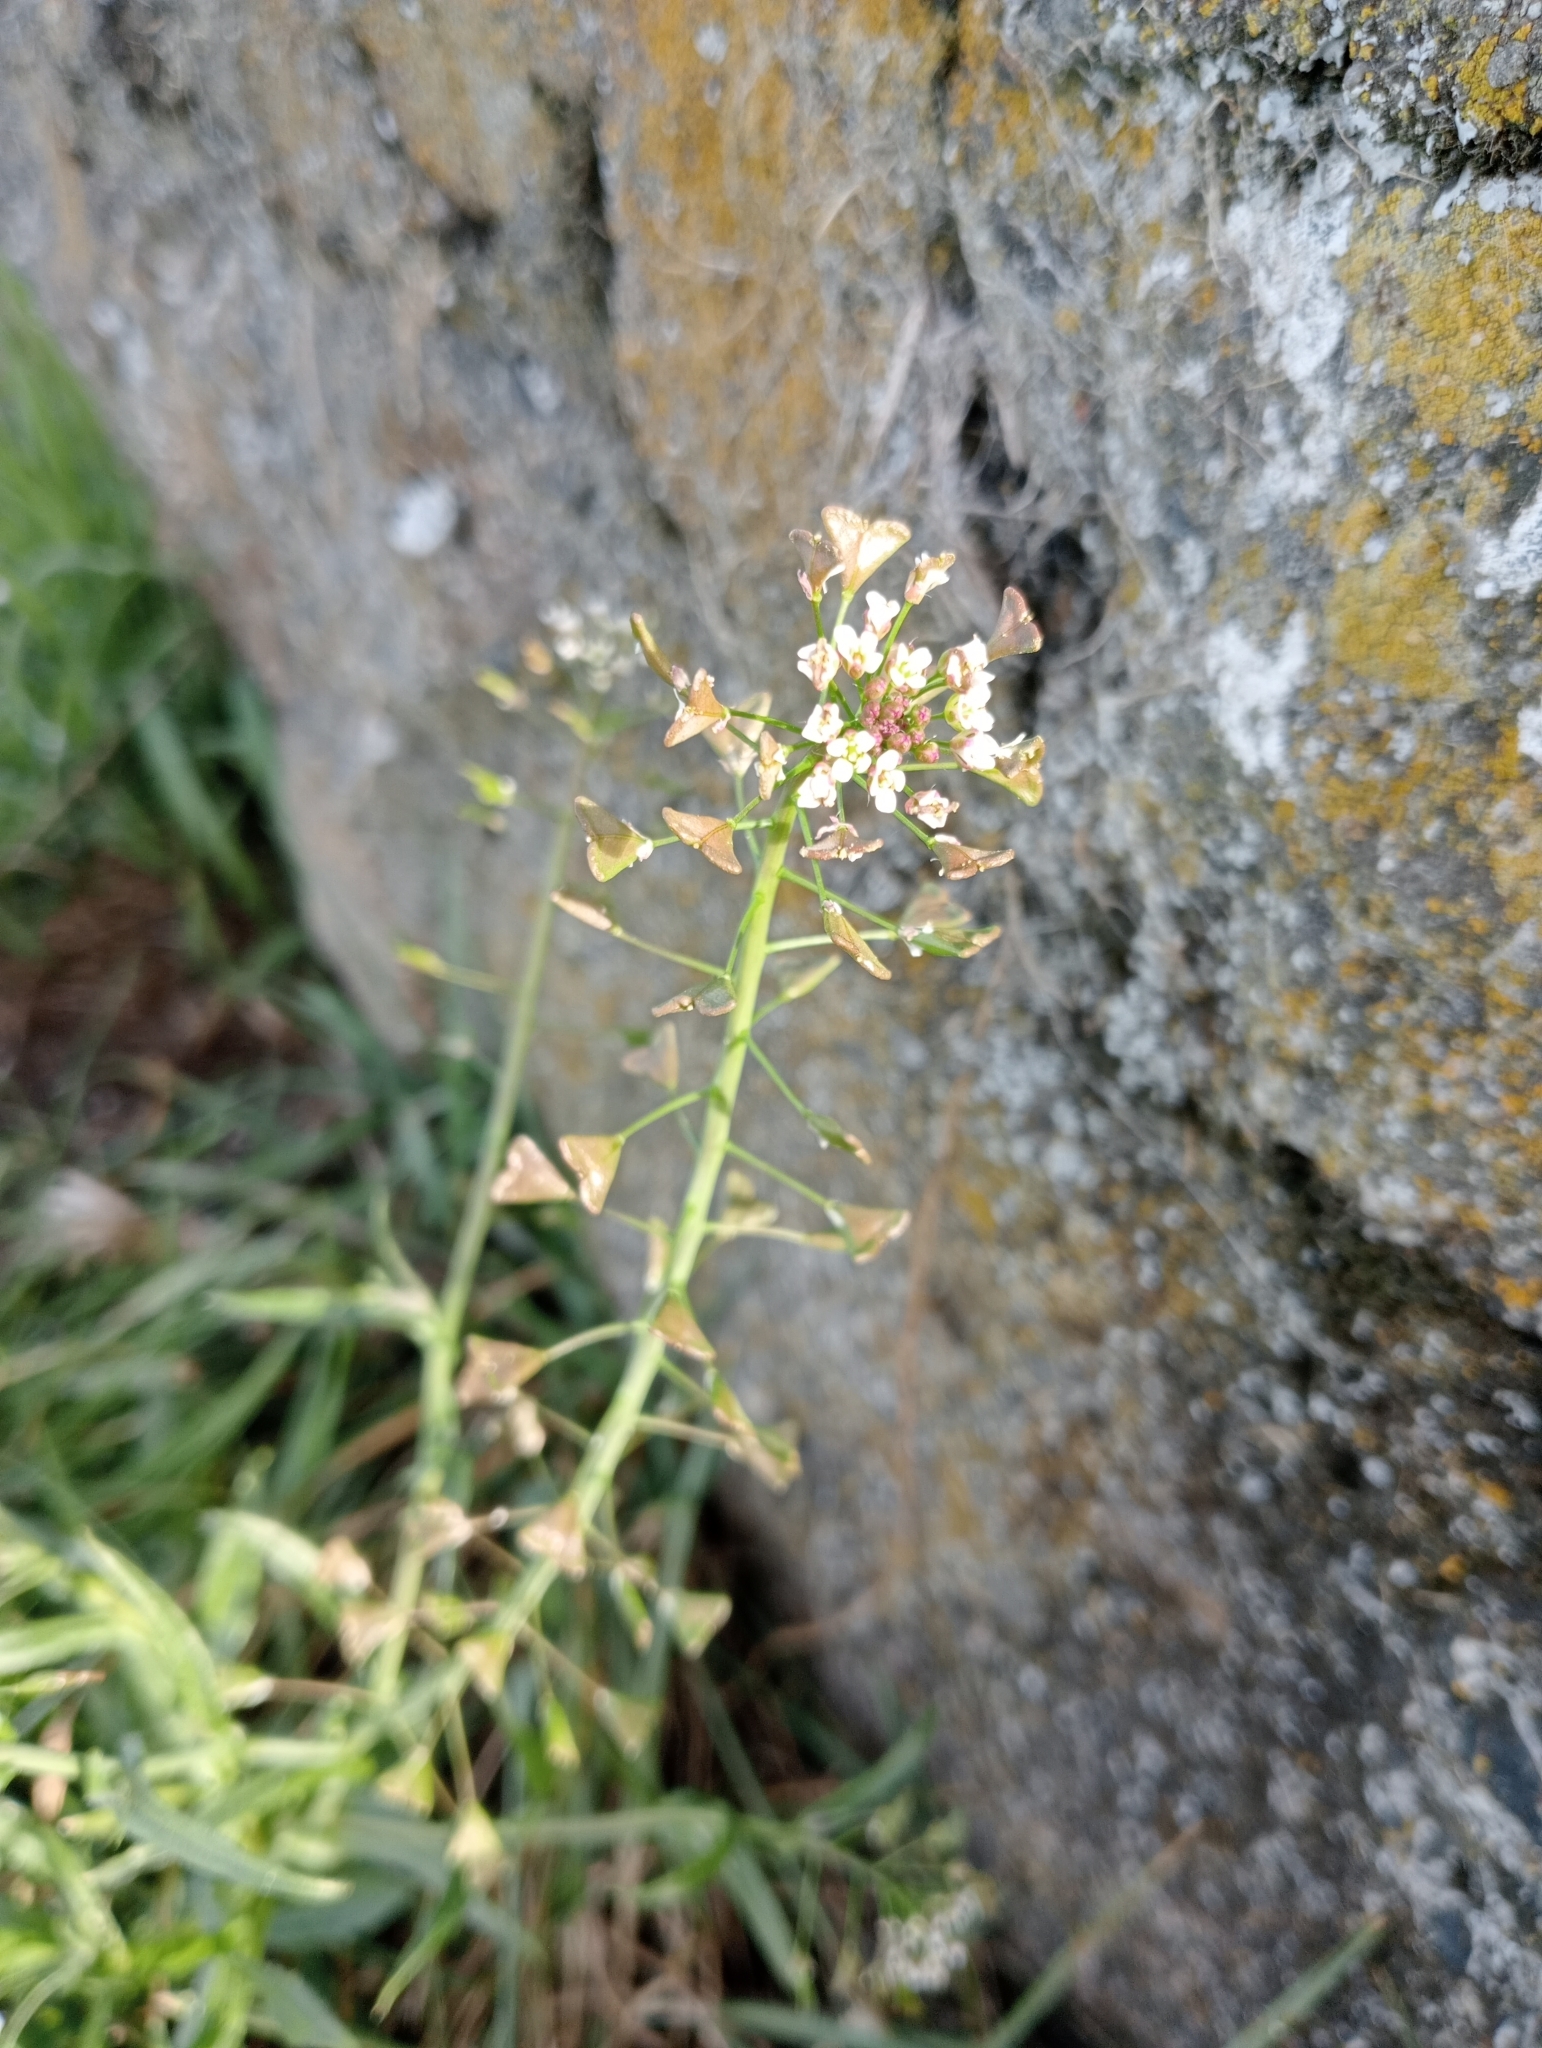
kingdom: Plantae
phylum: Tracheophyta
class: Magnoliopsida
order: Brassicales
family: Brassicaceae
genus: Capsella
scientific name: Capsella bursa-pastoris
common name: Shepherd's purse
